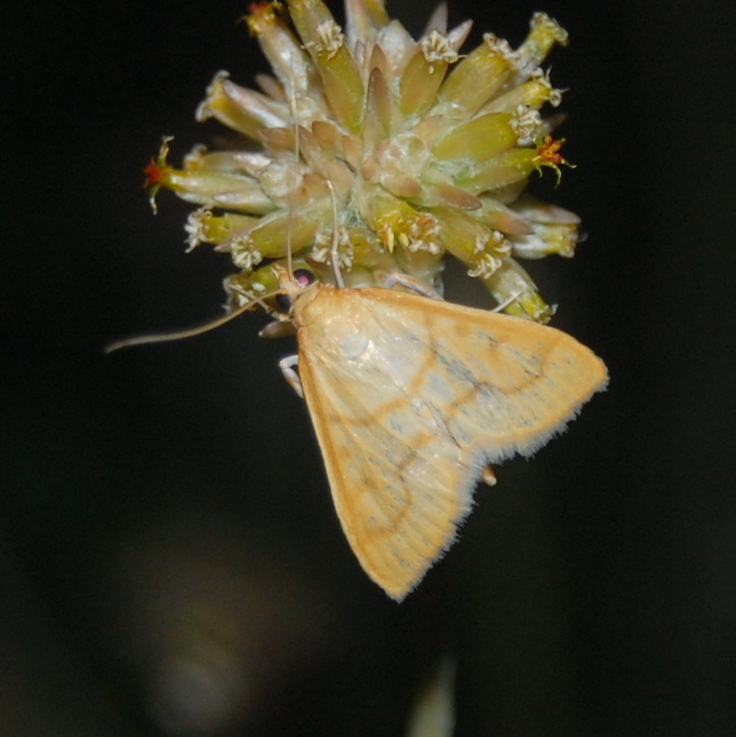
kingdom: Animalia
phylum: Arthropoda
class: Insecta
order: Lepidoptera
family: Crambidae
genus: Neohelvibotys
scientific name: Neohelvibotys pelotasalis
